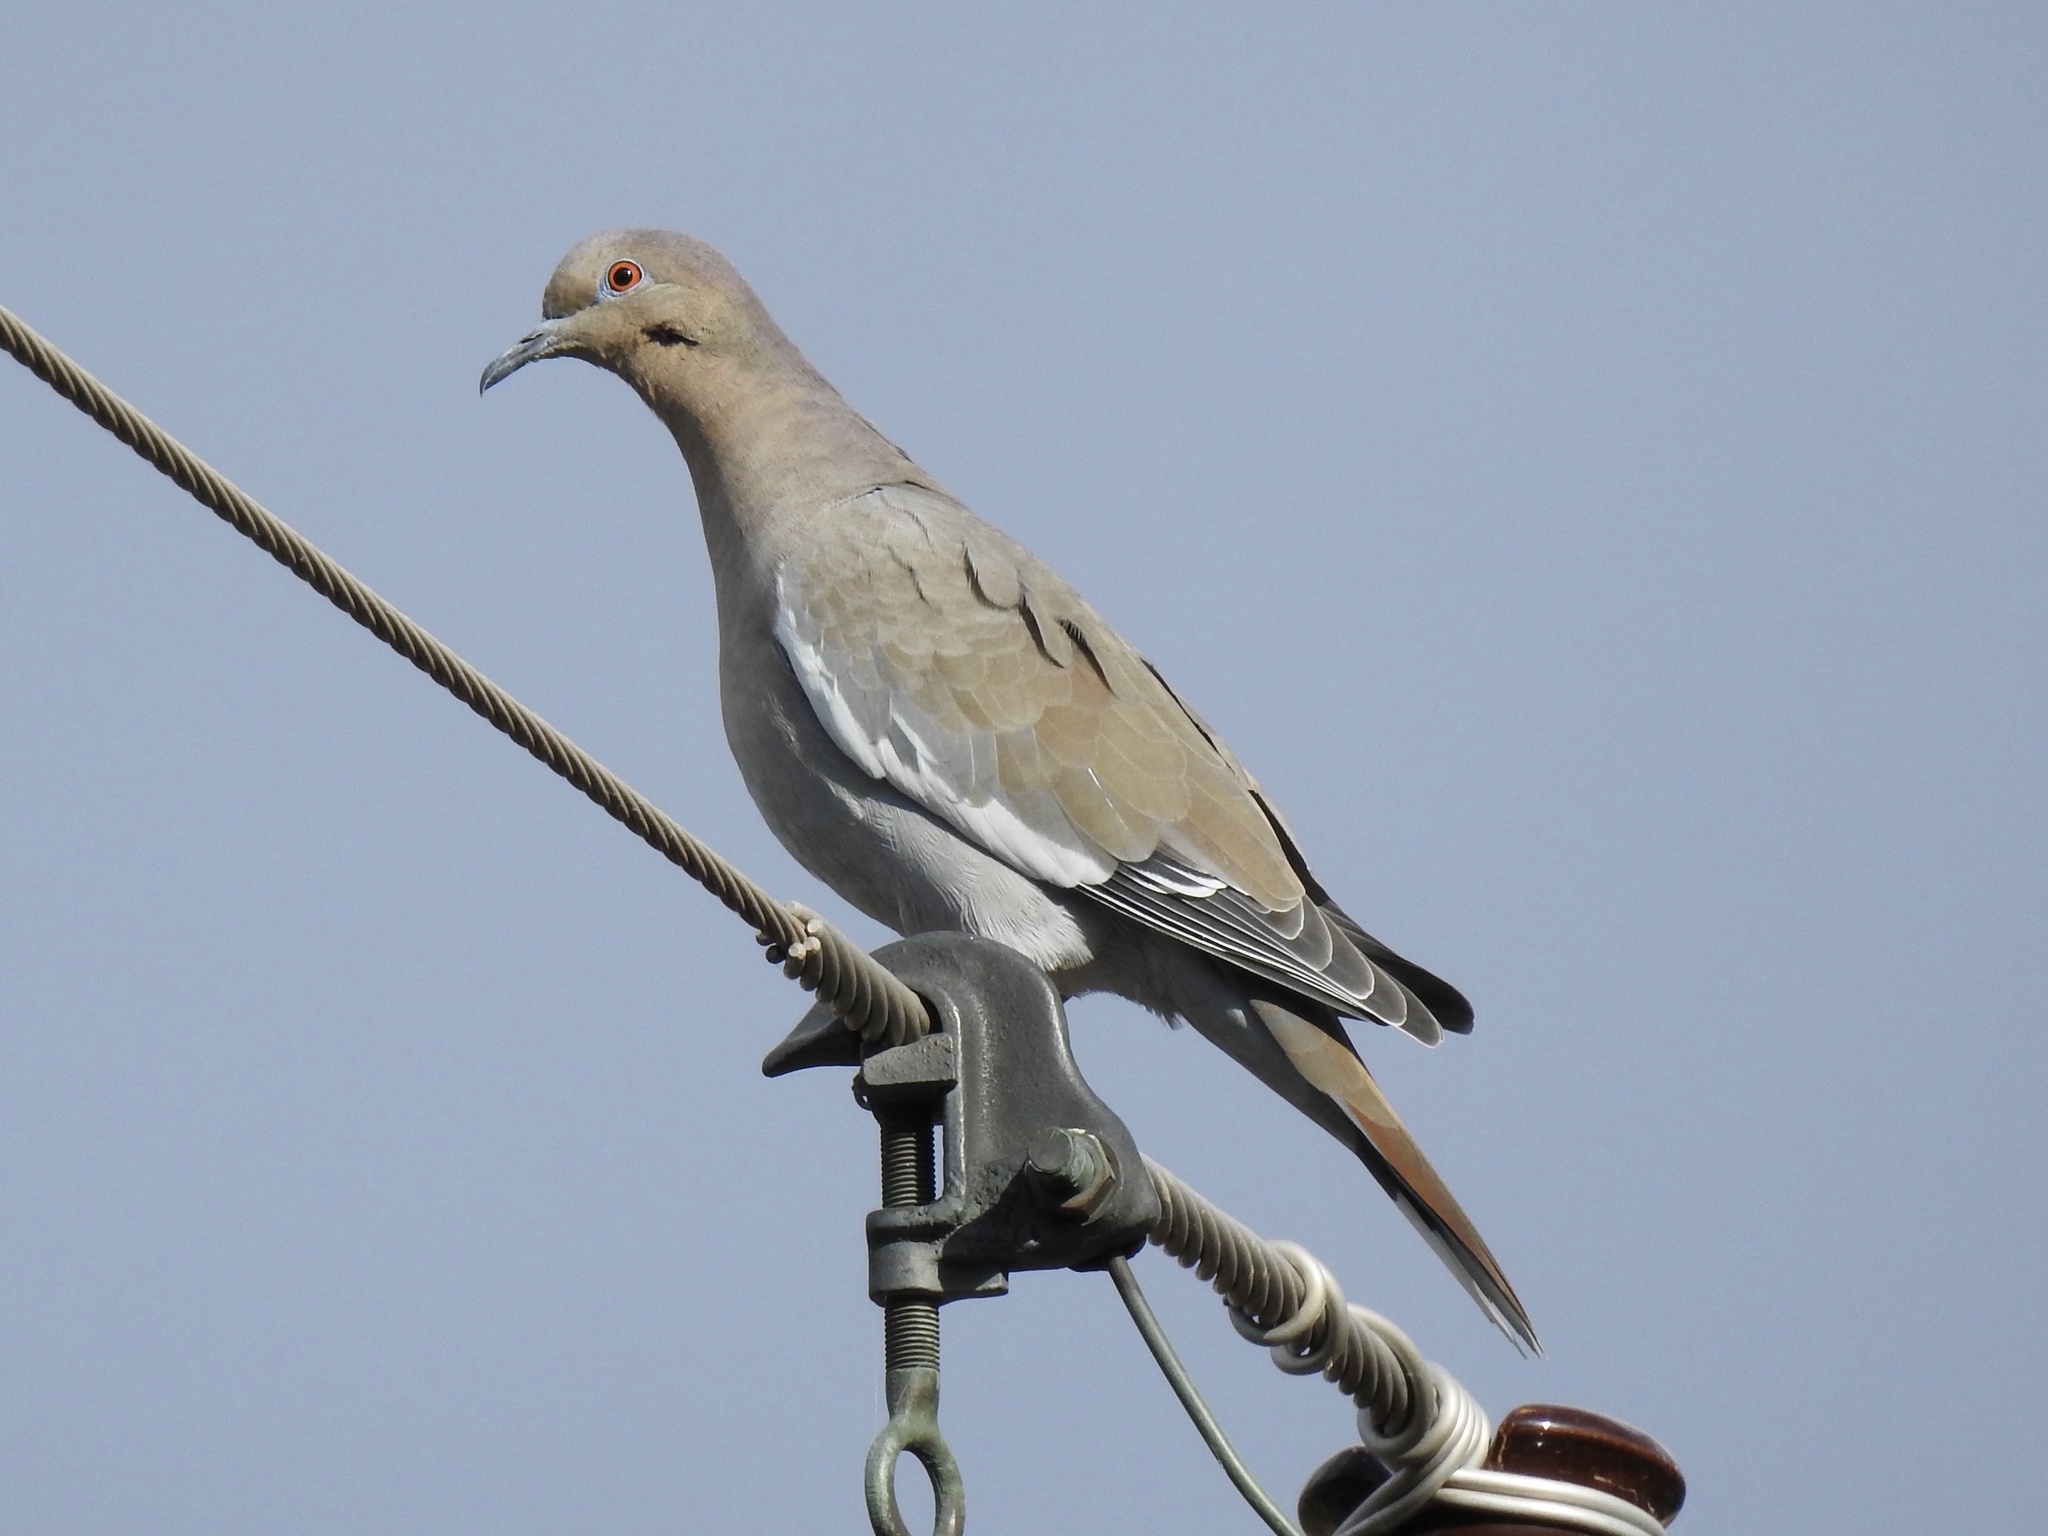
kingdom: Animalia
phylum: Chordata
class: Aves
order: Columbiformes
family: Columbidae
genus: Zenaida
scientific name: Zenaida asiatica
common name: White-winged dove
